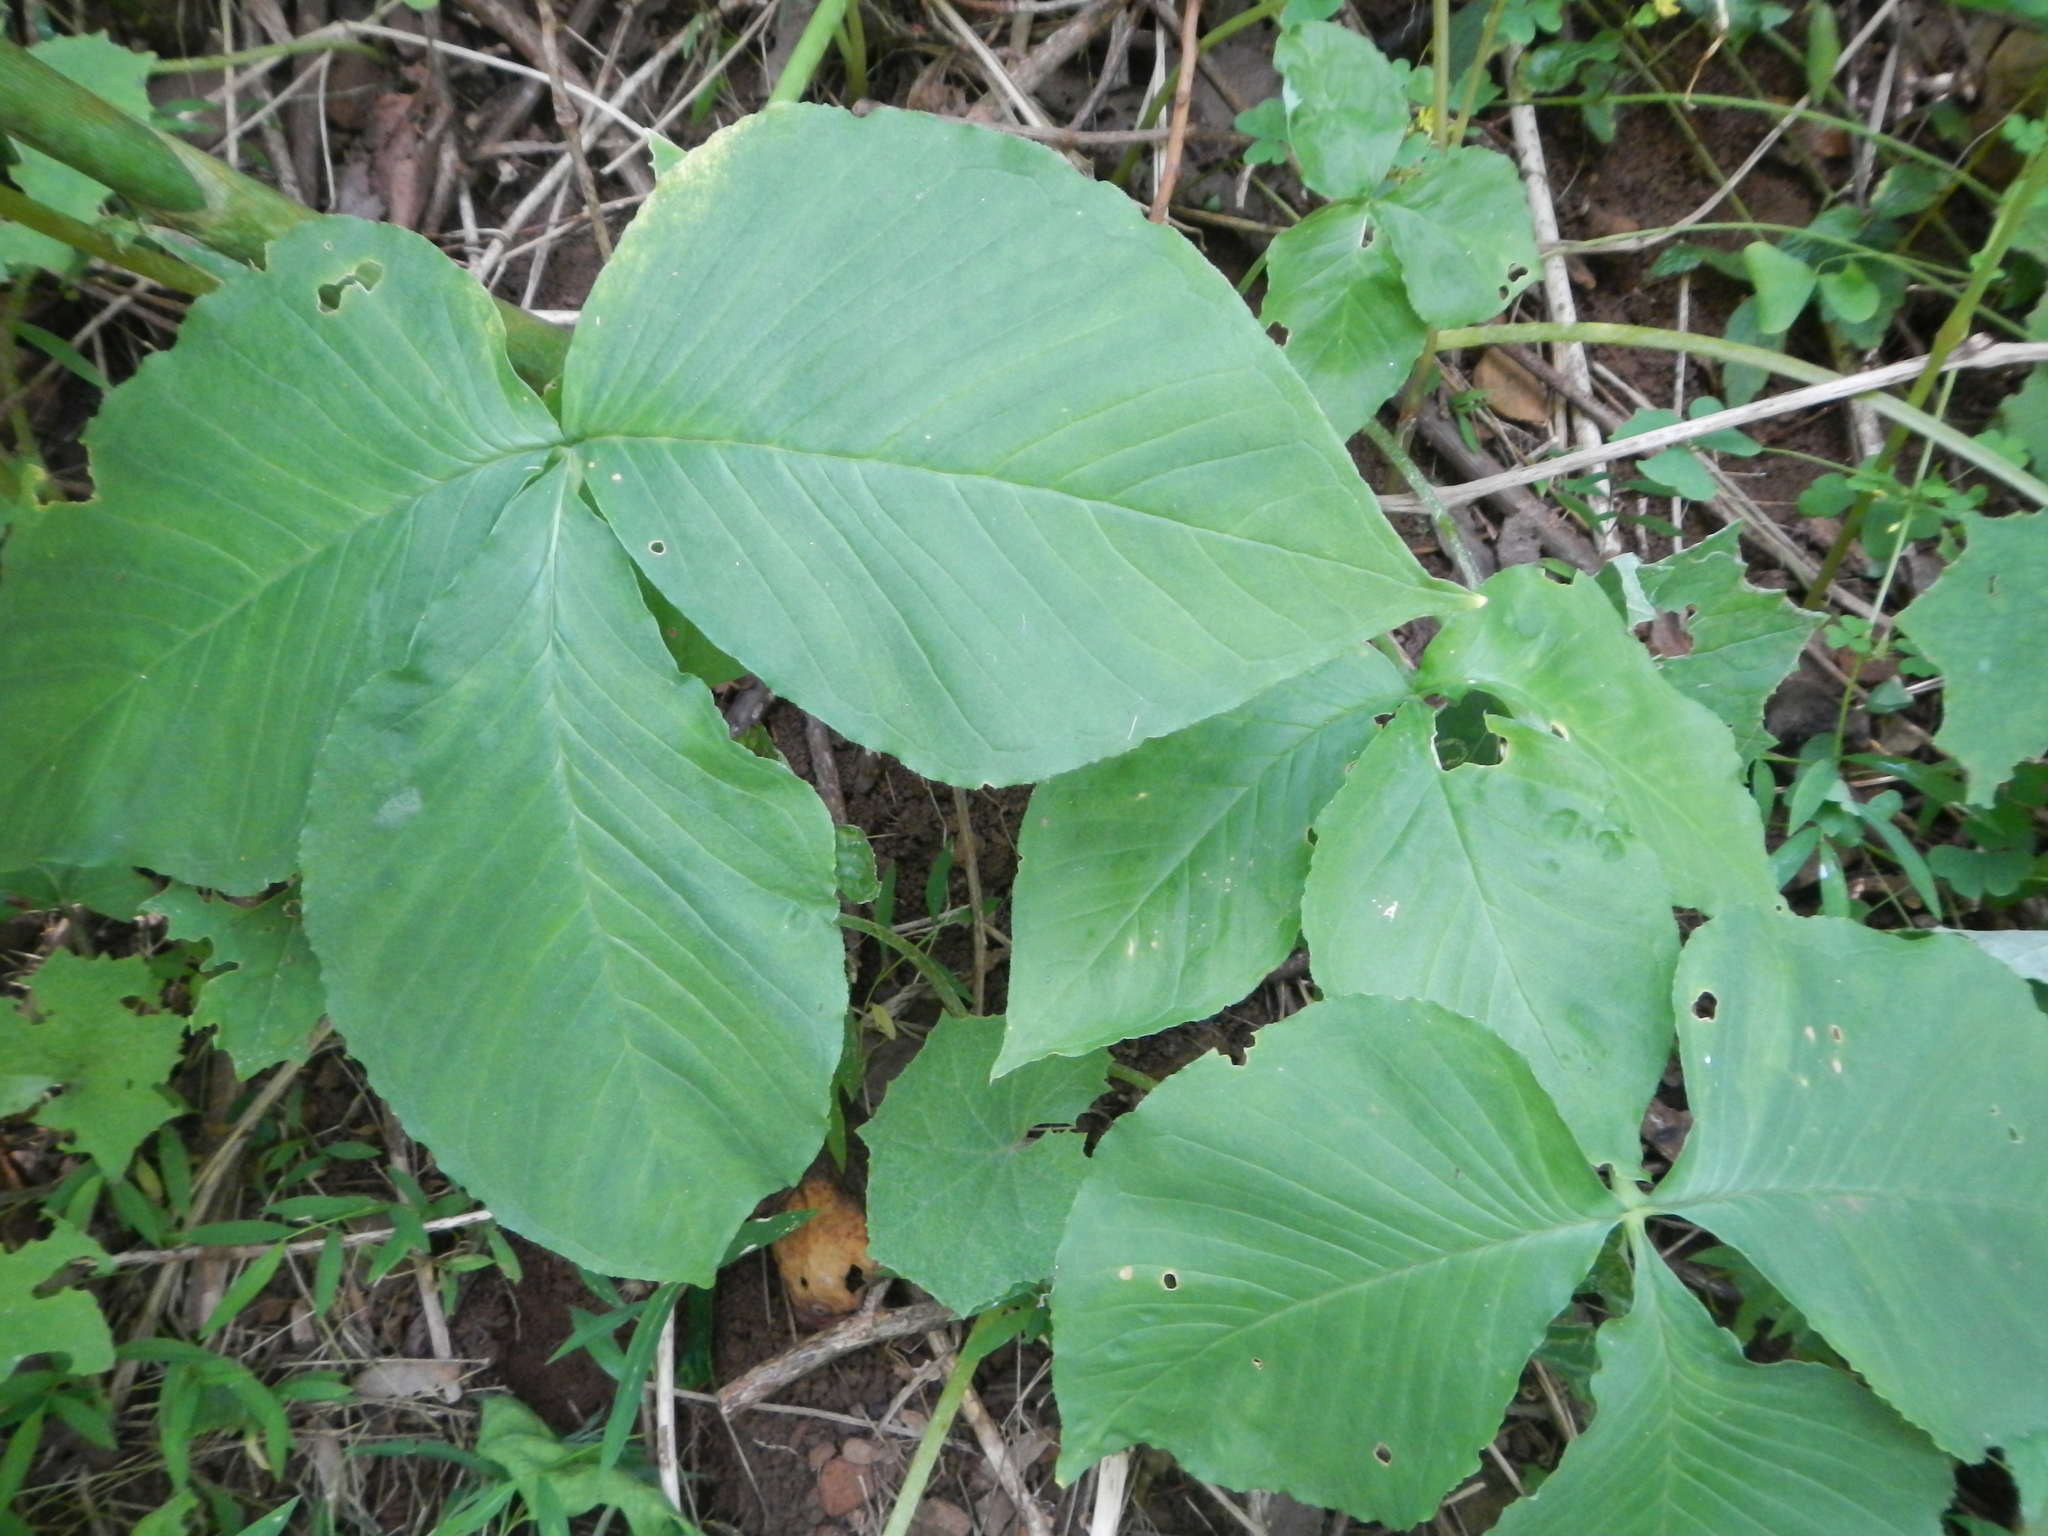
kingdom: Plantae
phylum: Tracheophyta
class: Liliopsida
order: Alismatales
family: Araceae
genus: Arisaema
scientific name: Arisaema triphyllum
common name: Jack-in-the-pulpit
